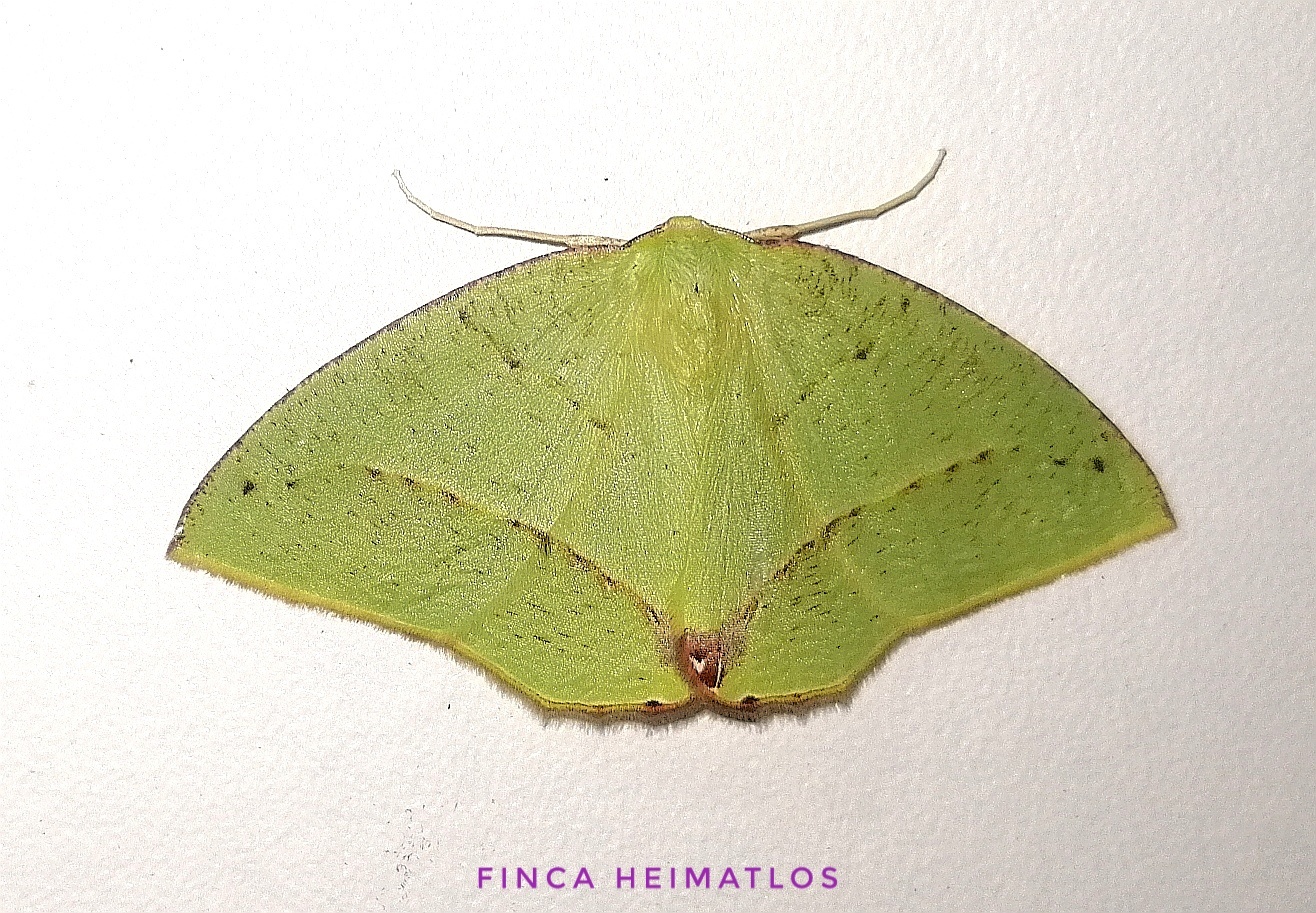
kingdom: Animalia
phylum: Arthropoda
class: Insecta
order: Lepidoptera
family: Geometridae
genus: Phyle
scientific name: Phyle aspilotos
